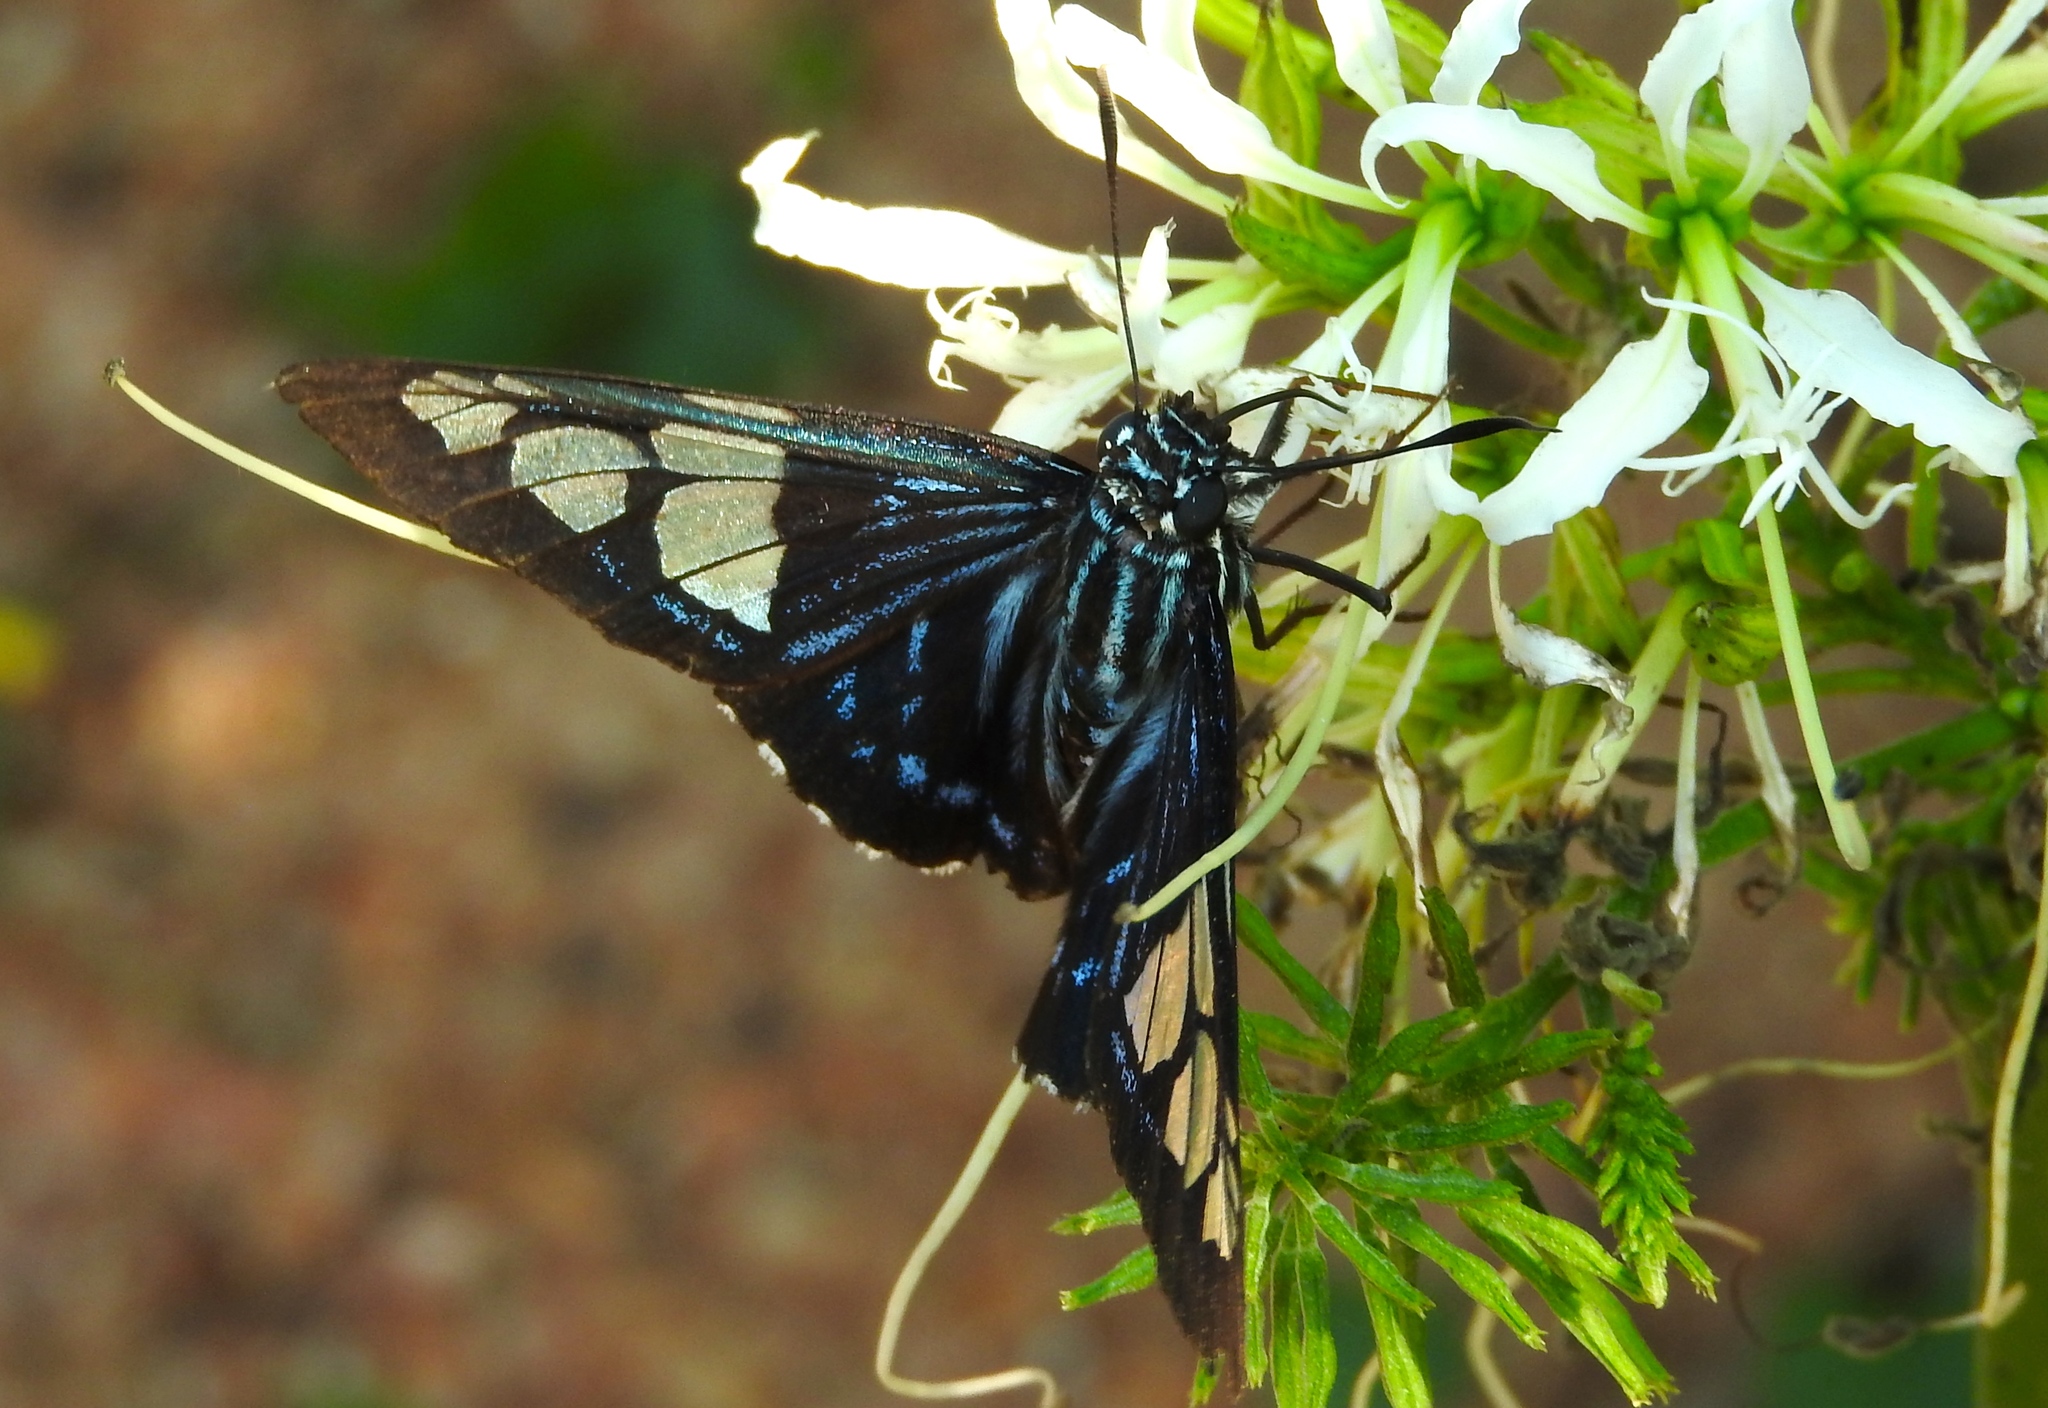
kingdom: Animalia
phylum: Arthropoda
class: Insecta
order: Lepidoptera
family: Hesperiidae
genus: Phocides
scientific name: Phocides pigmalion
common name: Mangrove skipper
